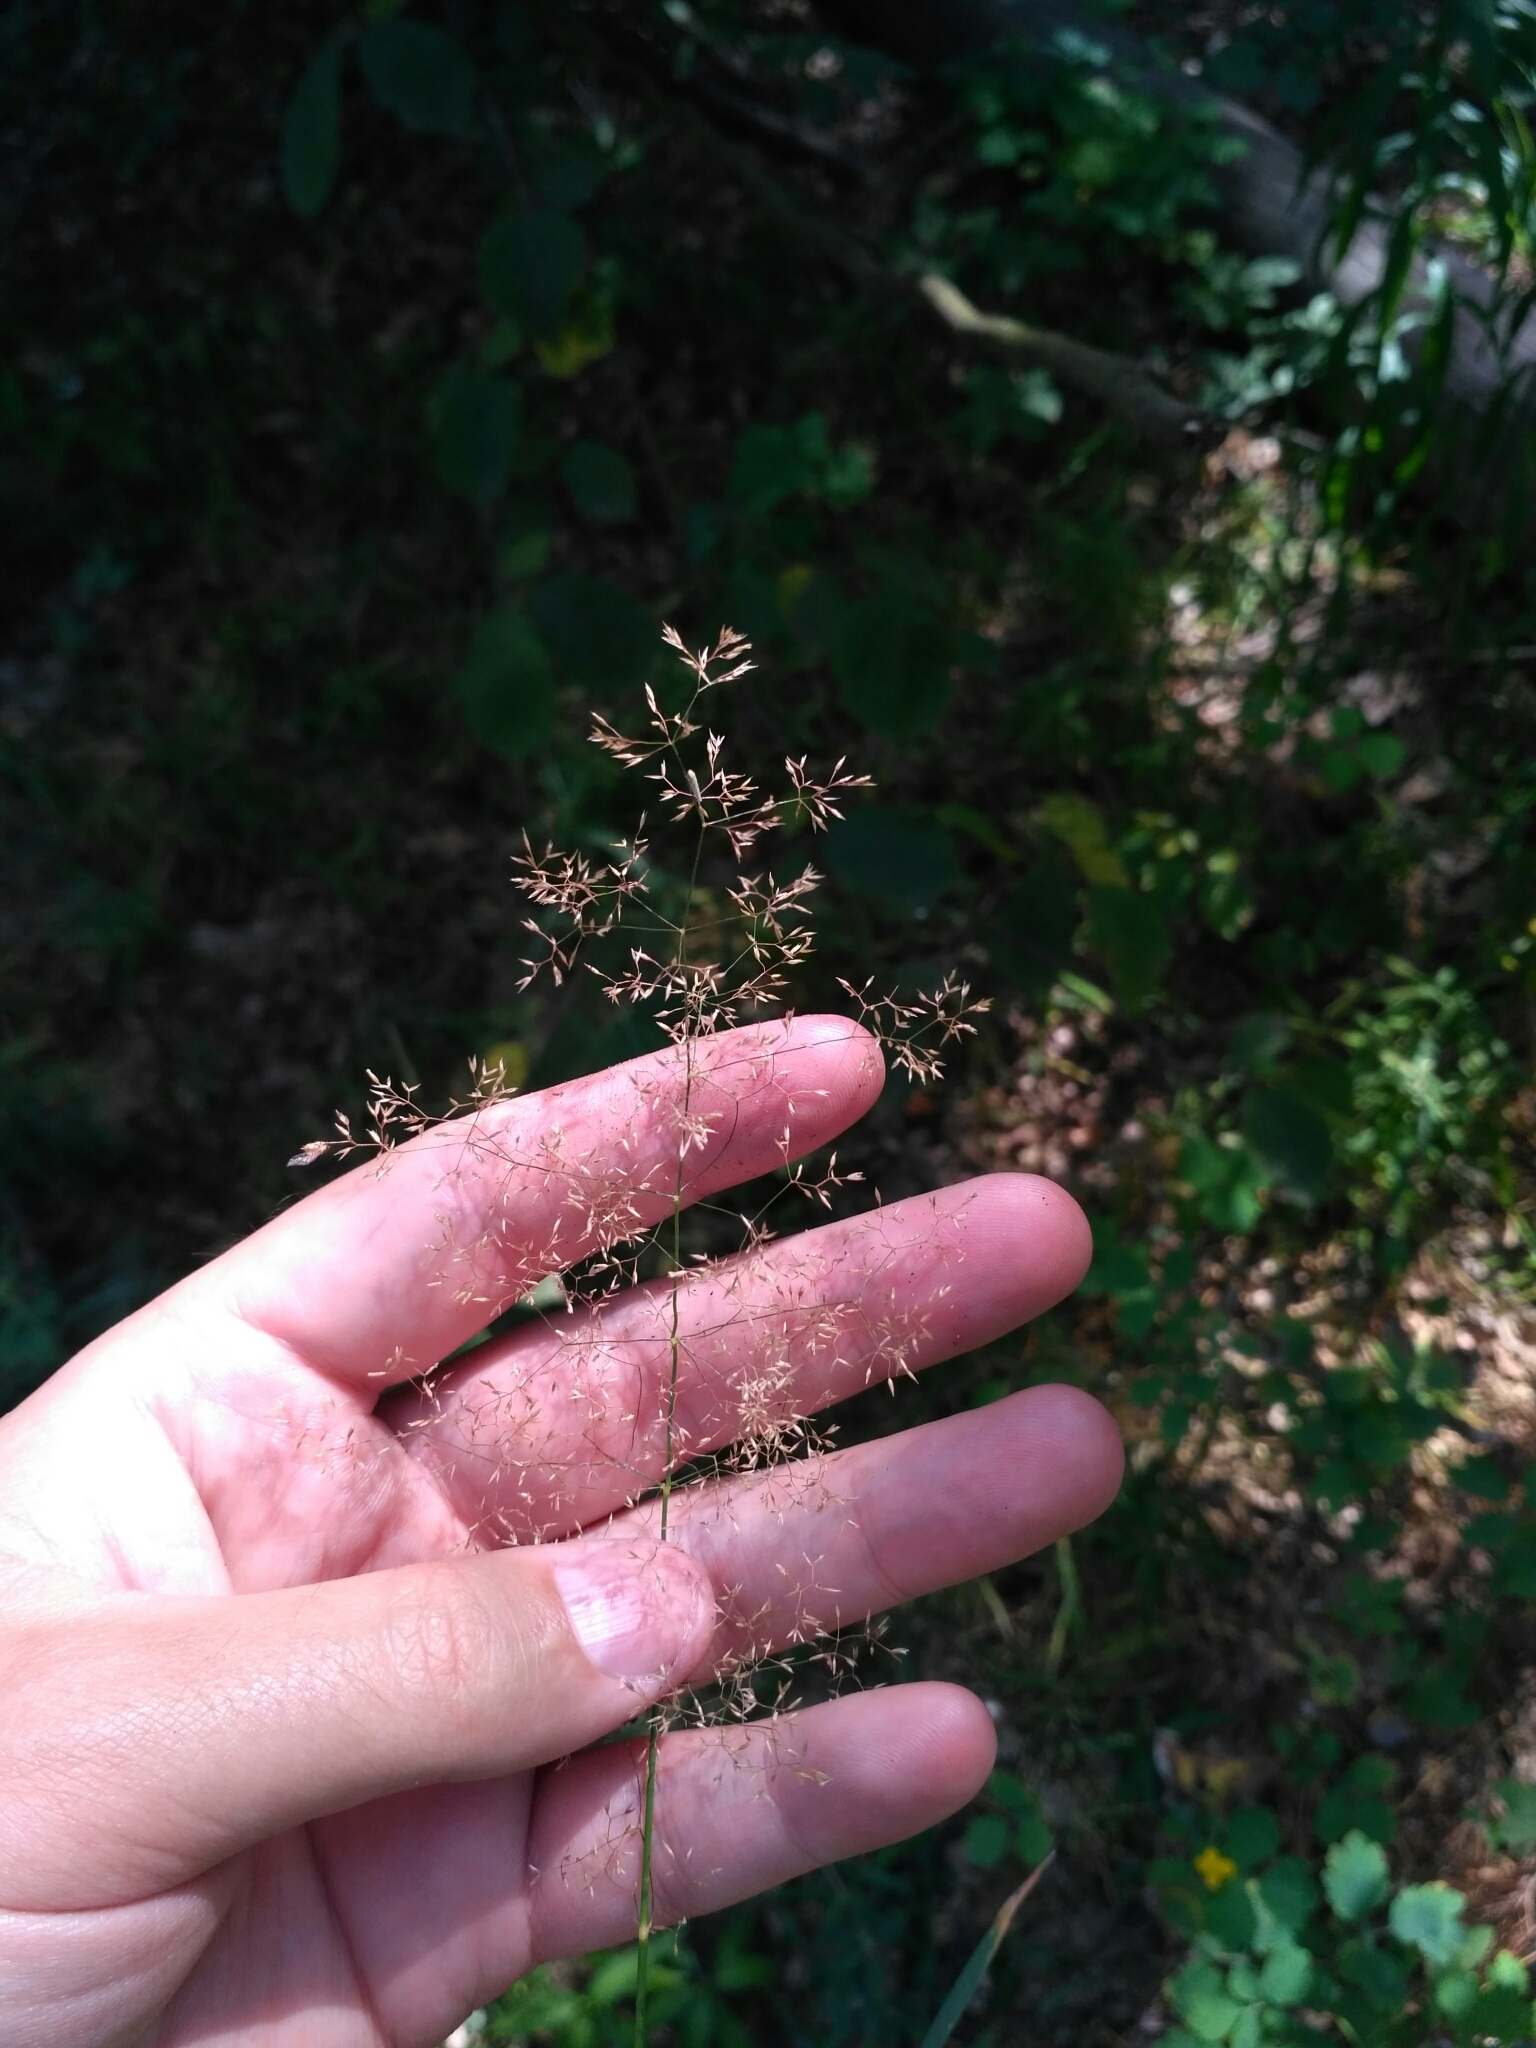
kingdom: Plantae
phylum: Tracheophyta
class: Liliopsida
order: Poales
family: Poaceae
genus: Agrostis
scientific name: Agrostis capillaris
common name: Colonial bentgrass
